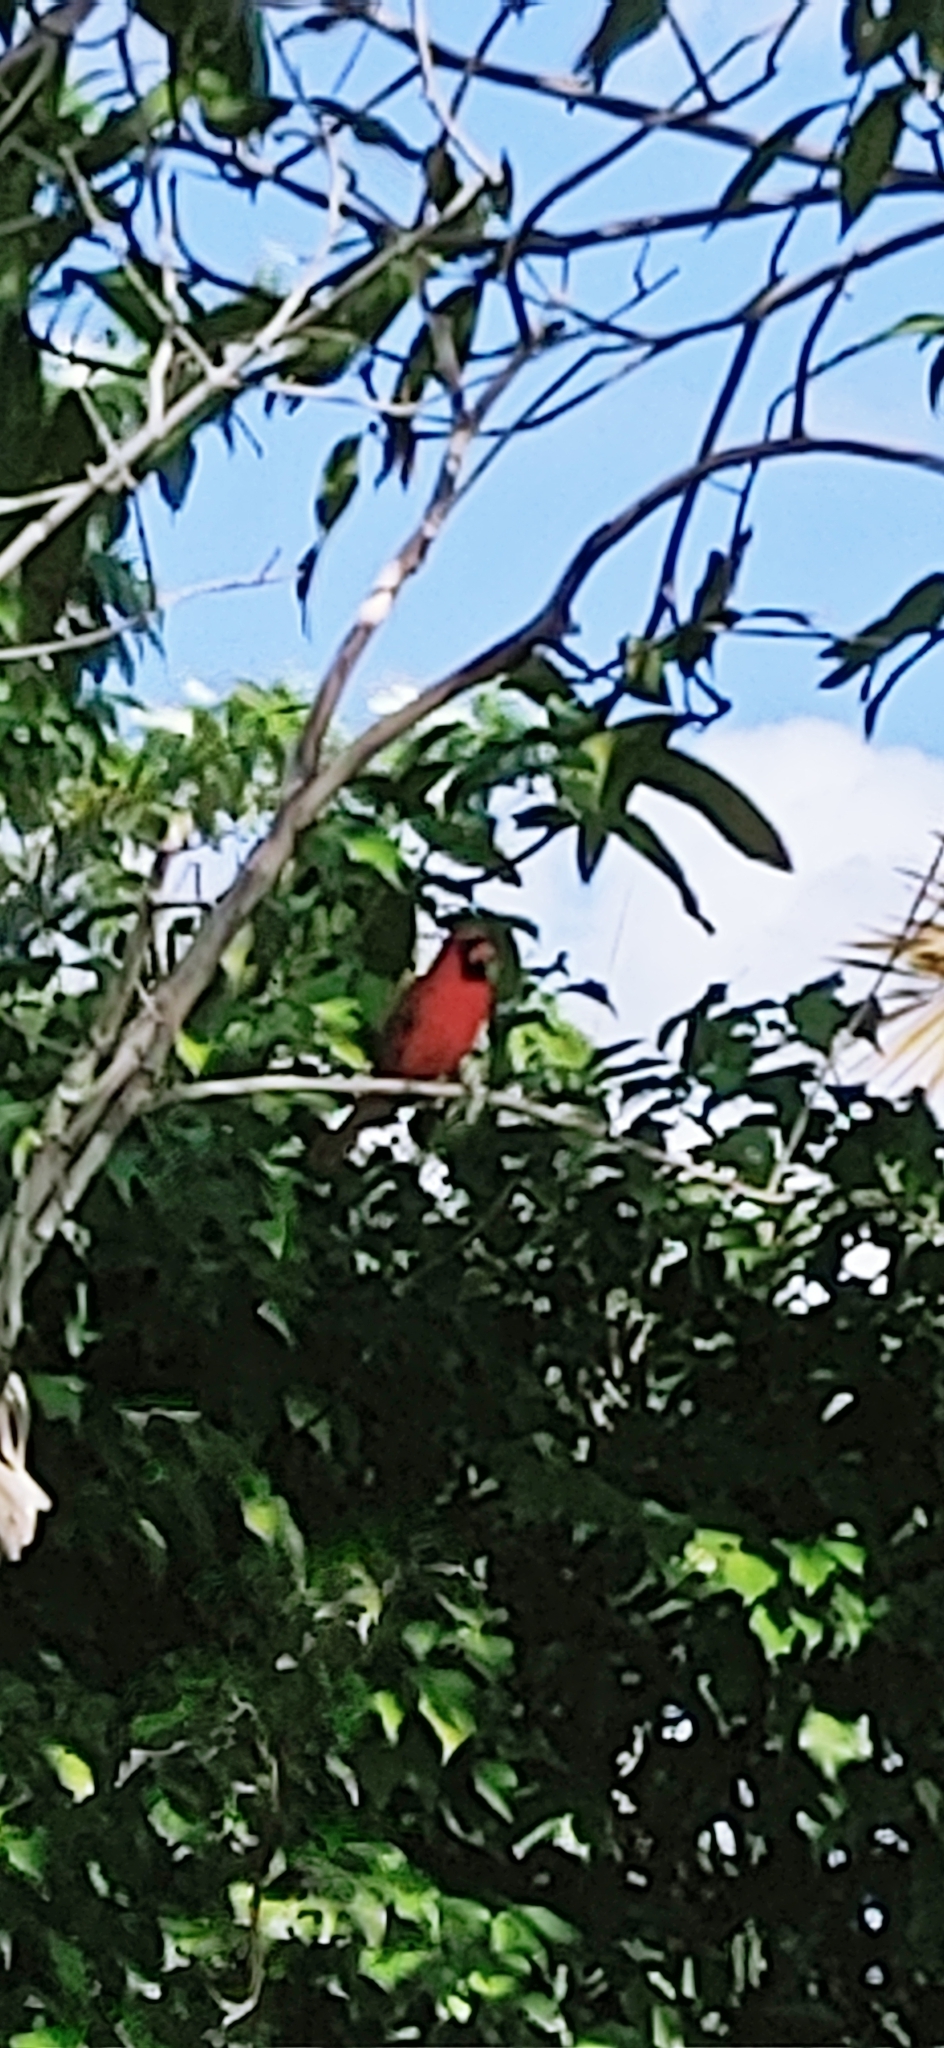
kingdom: Animalia
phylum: Chordata
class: Aves
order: Passeriformes
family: Cardinalidae
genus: Cardinalis
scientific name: Cardinalis cardinalis
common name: Northern cardinal
